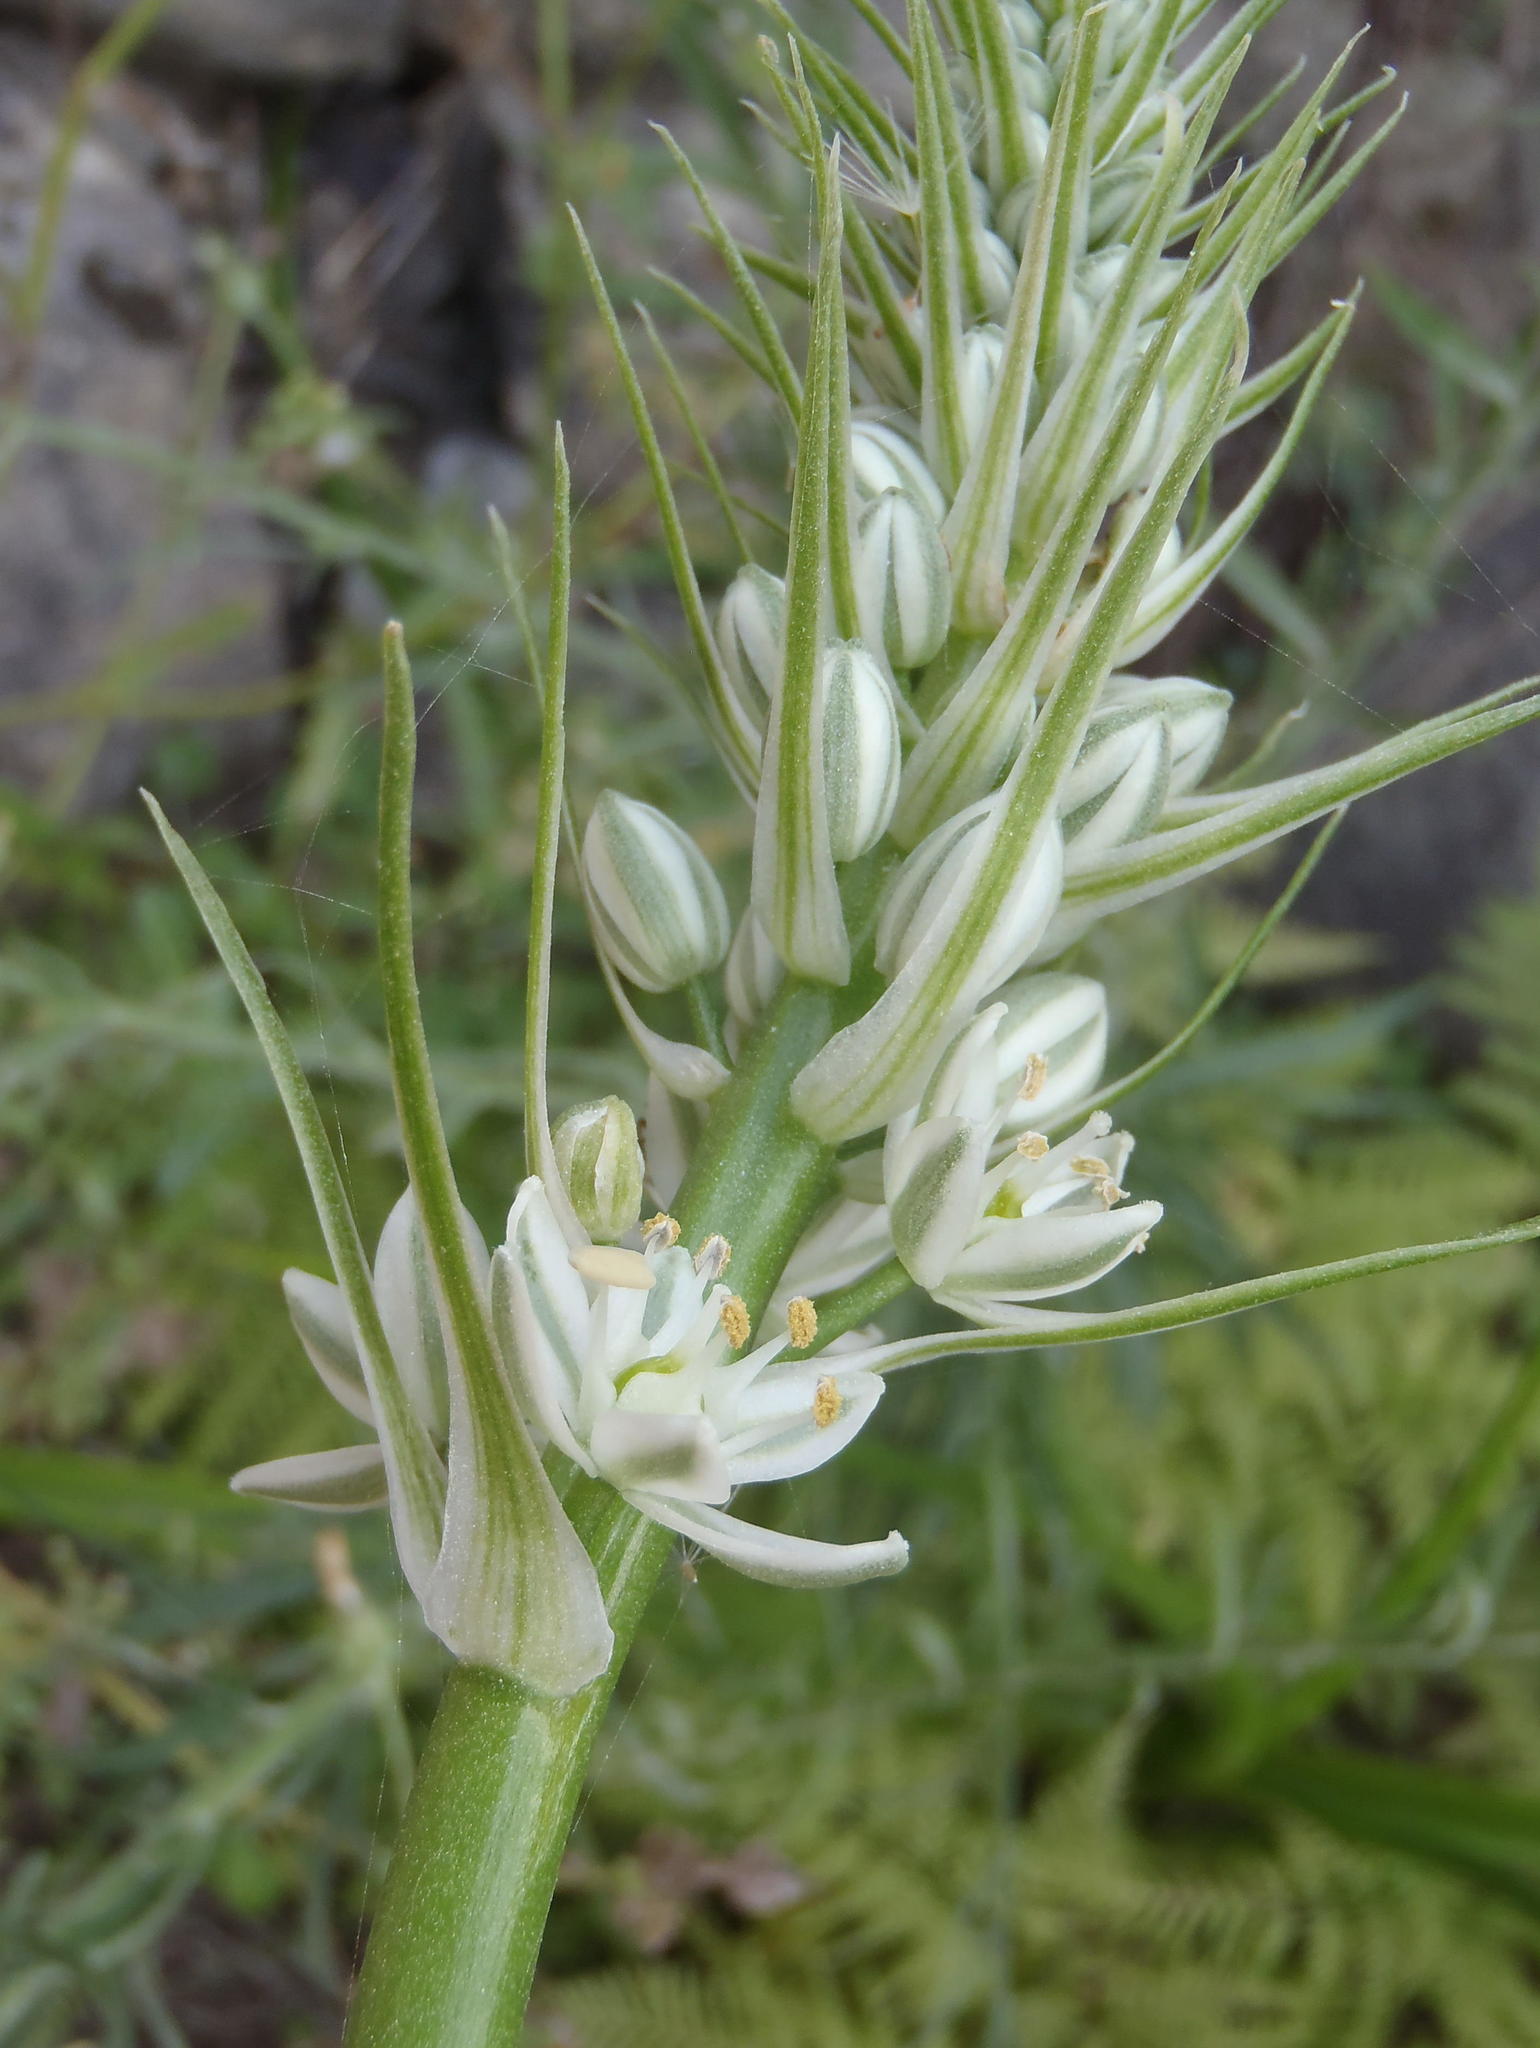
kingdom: Plantae
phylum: Tracheophyta
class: Liliopsida
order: Asparagales
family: Asparagaceae
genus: Albuca
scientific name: Albuca bracteata
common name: Sea-onion
